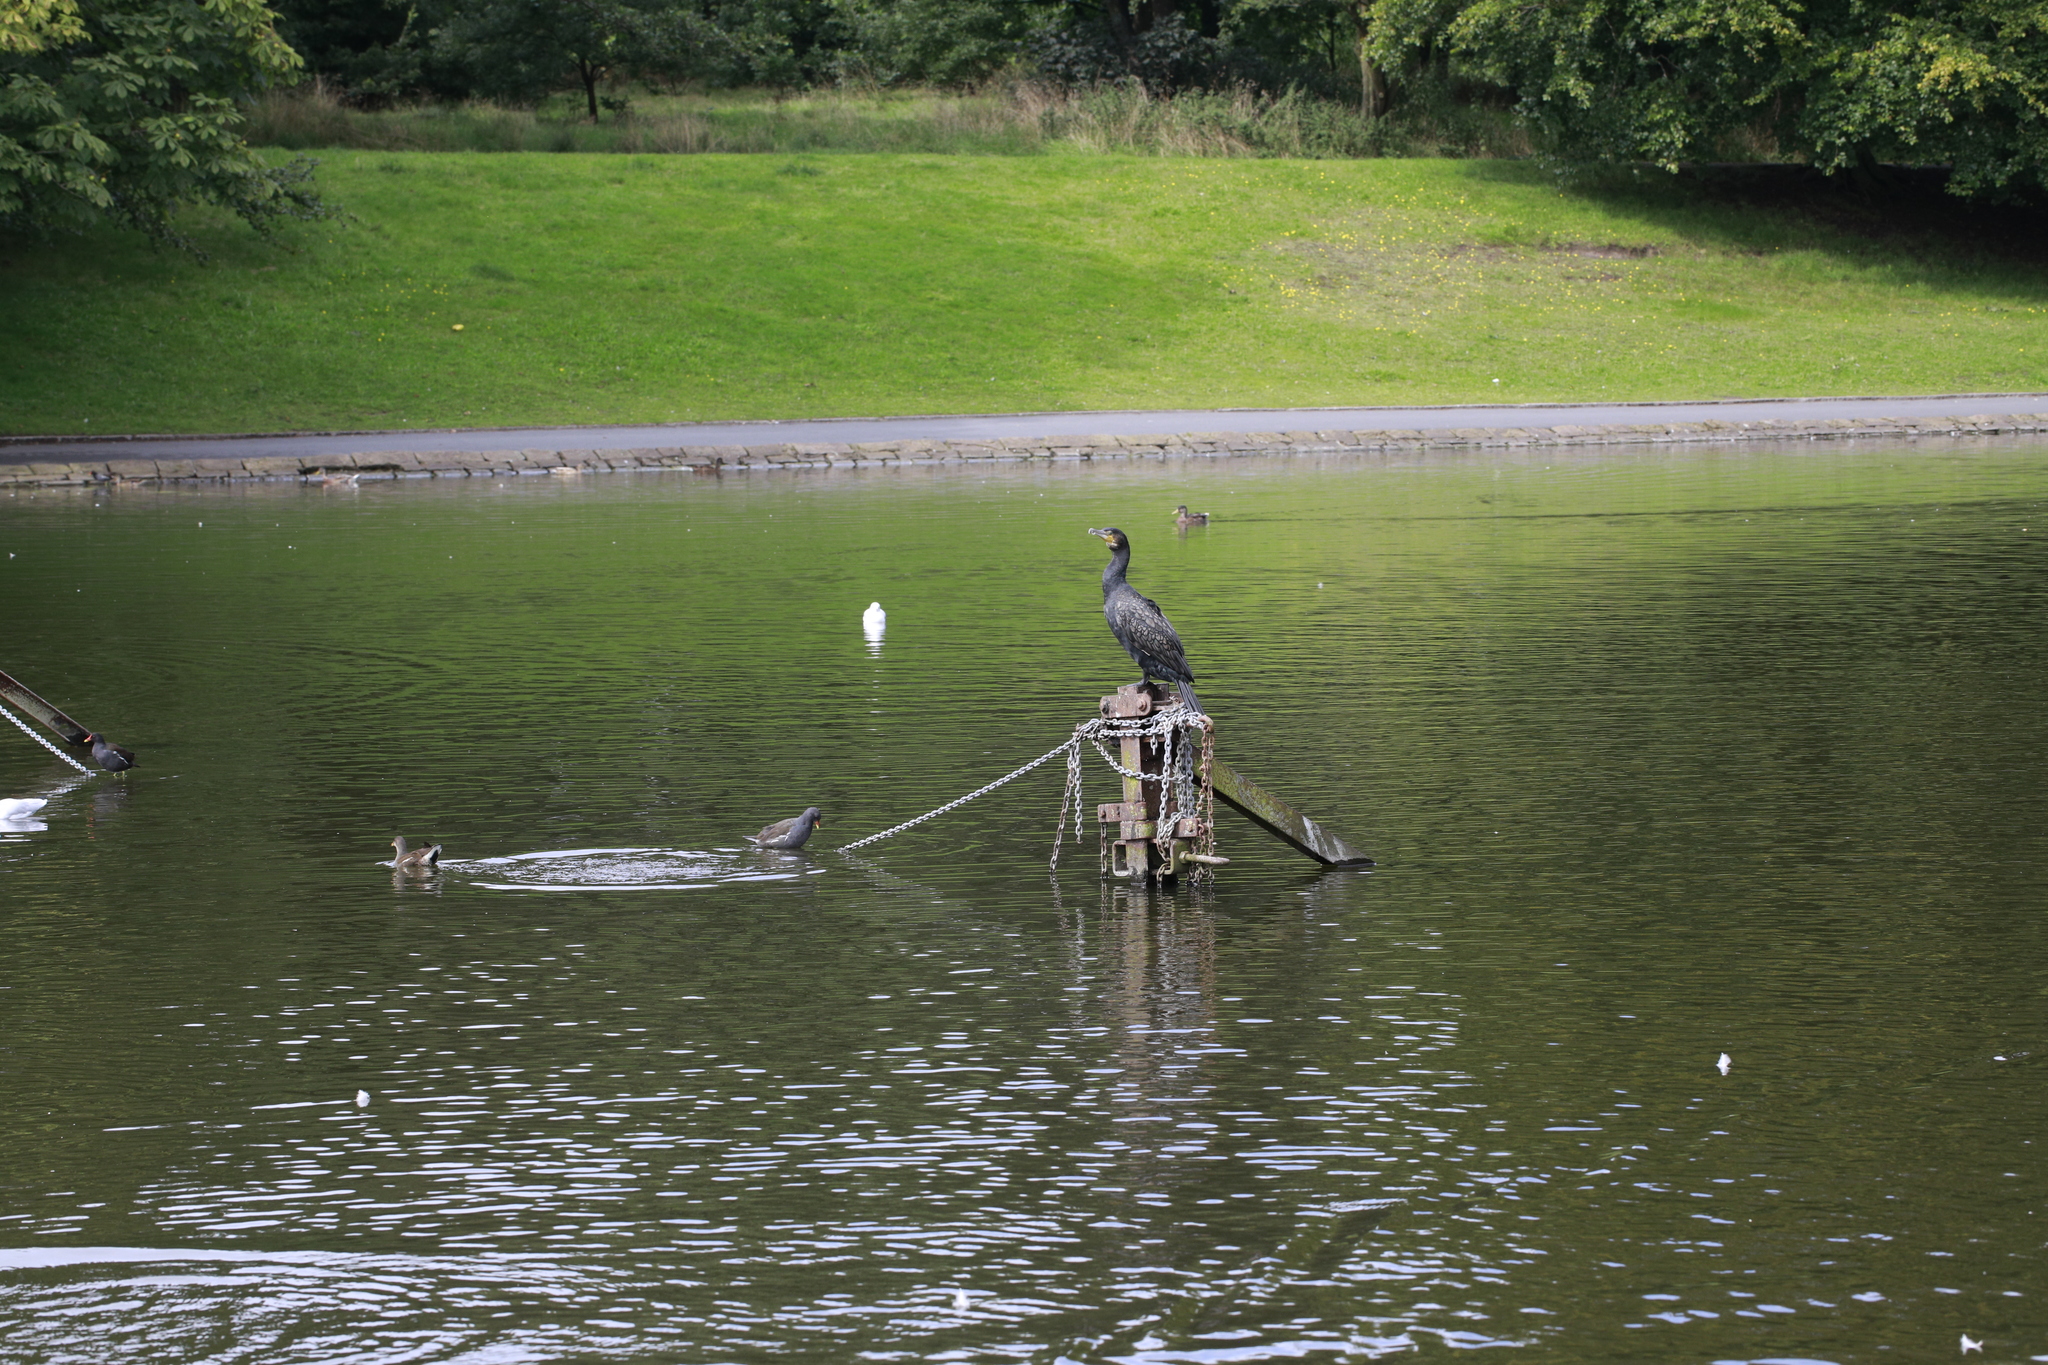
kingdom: Animalia
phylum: Chordata
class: Aves
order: Suliformes
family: Phalacrocoracidae
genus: Phalacrocorax
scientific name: Phalacrocorax carbo
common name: Great cormorant
